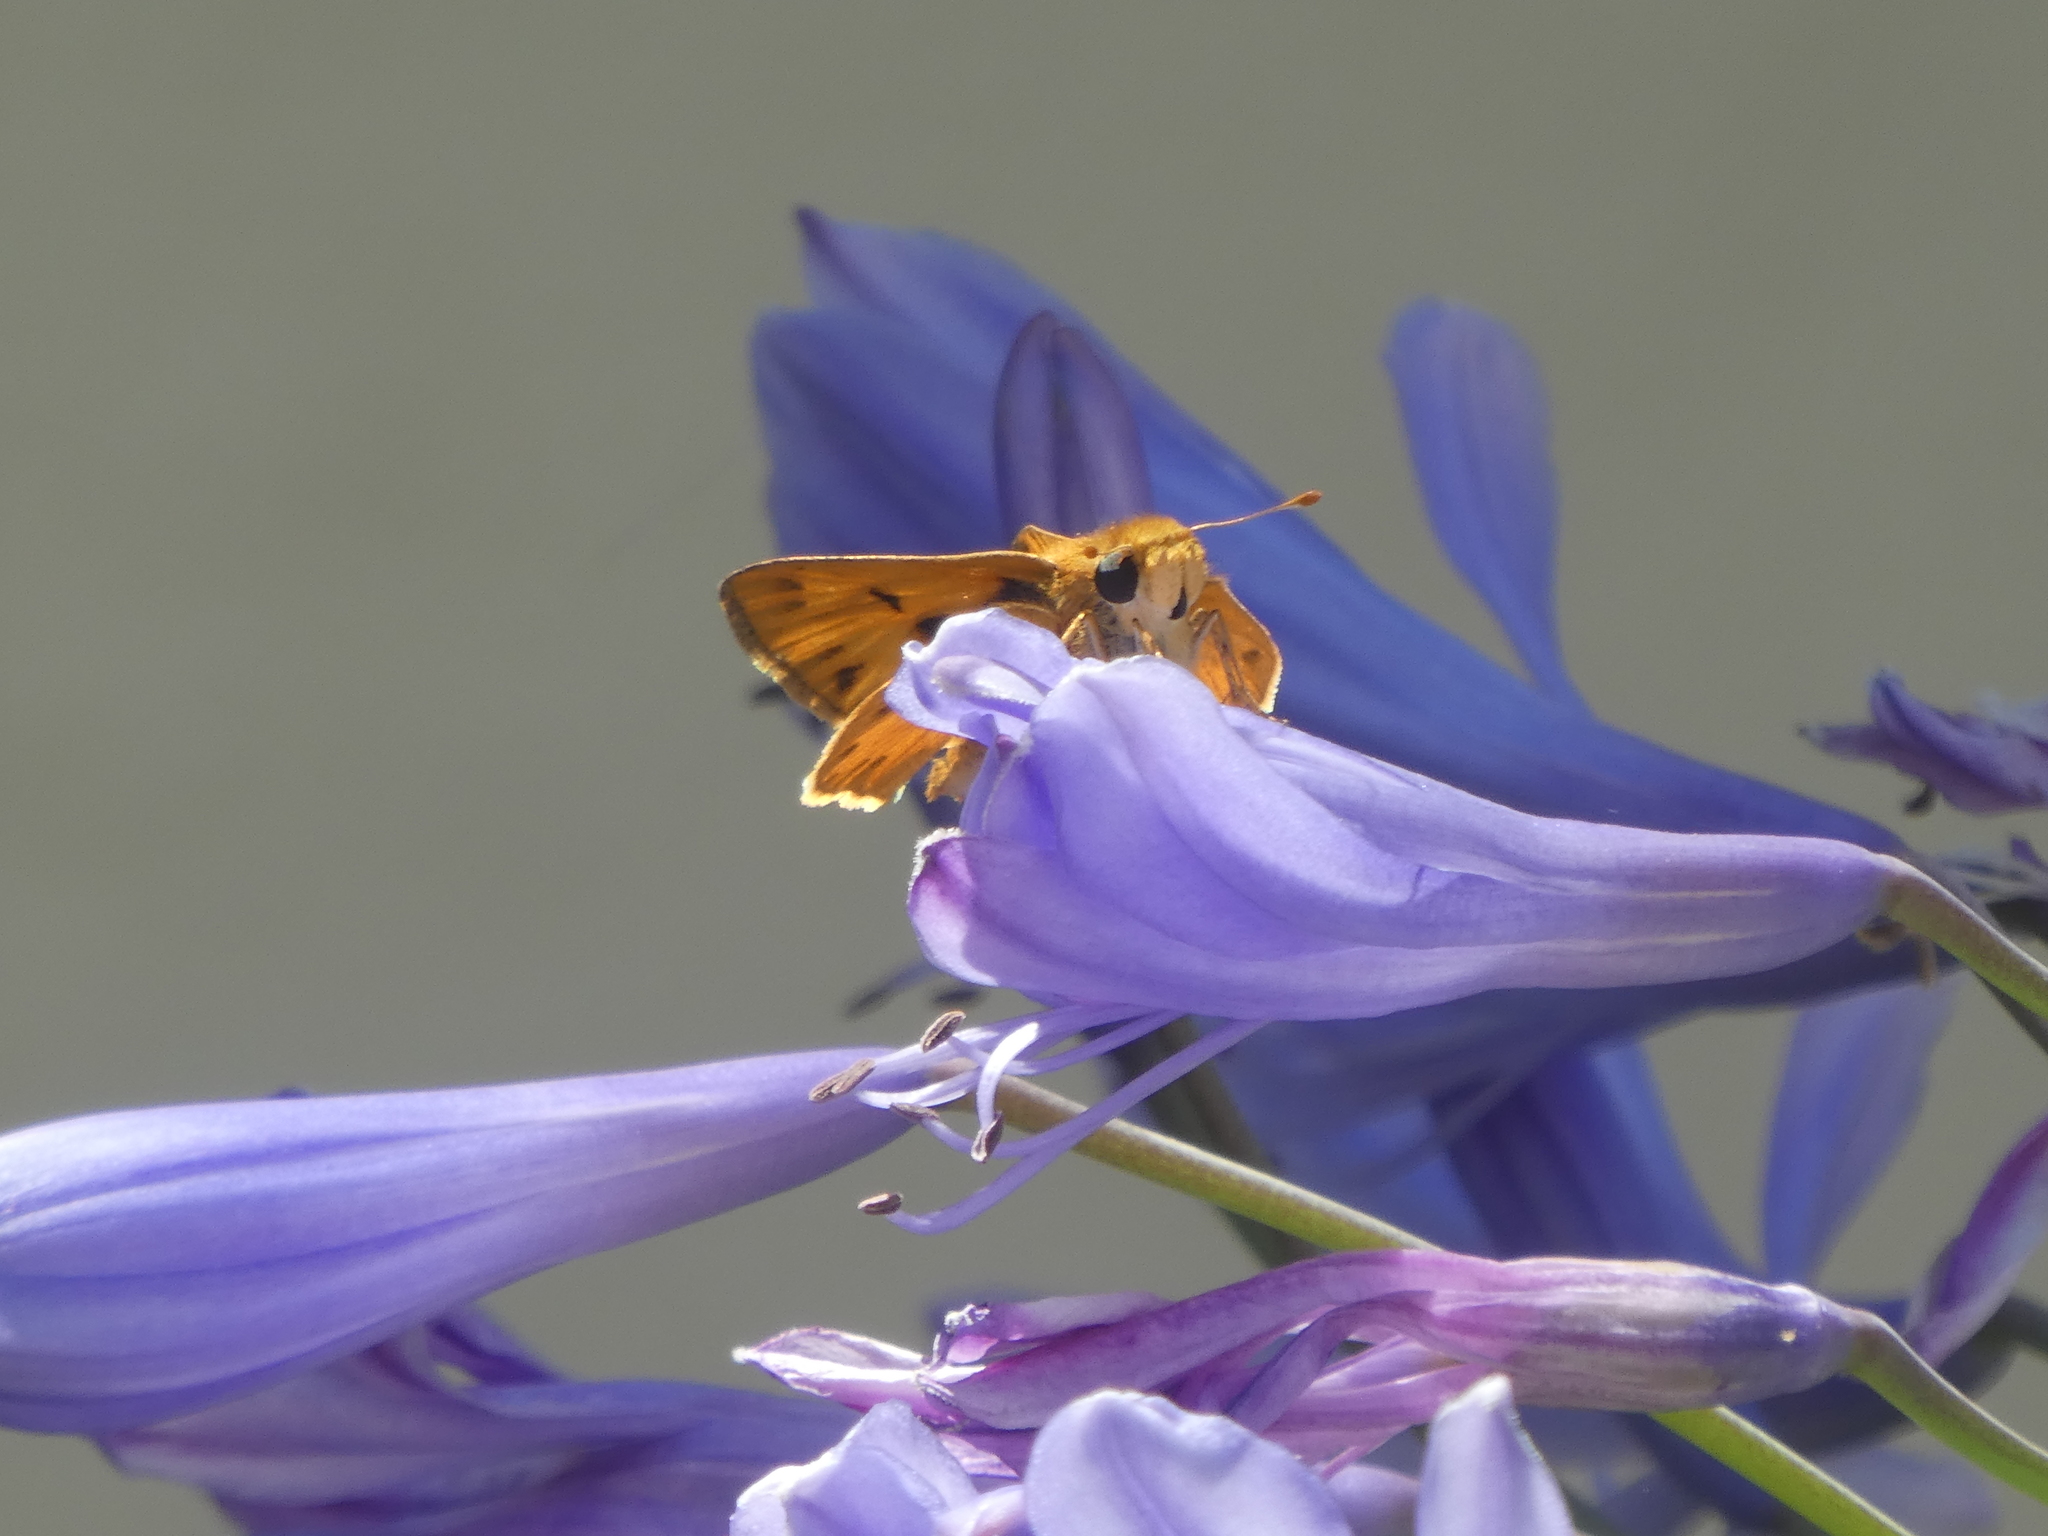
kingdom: Animalia
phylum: Arthropoda
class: Insecta
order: Lepidoptera
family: Hesperiidae
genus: Hylephila
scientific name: Hylephila phyleus
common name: Fiery skipper
